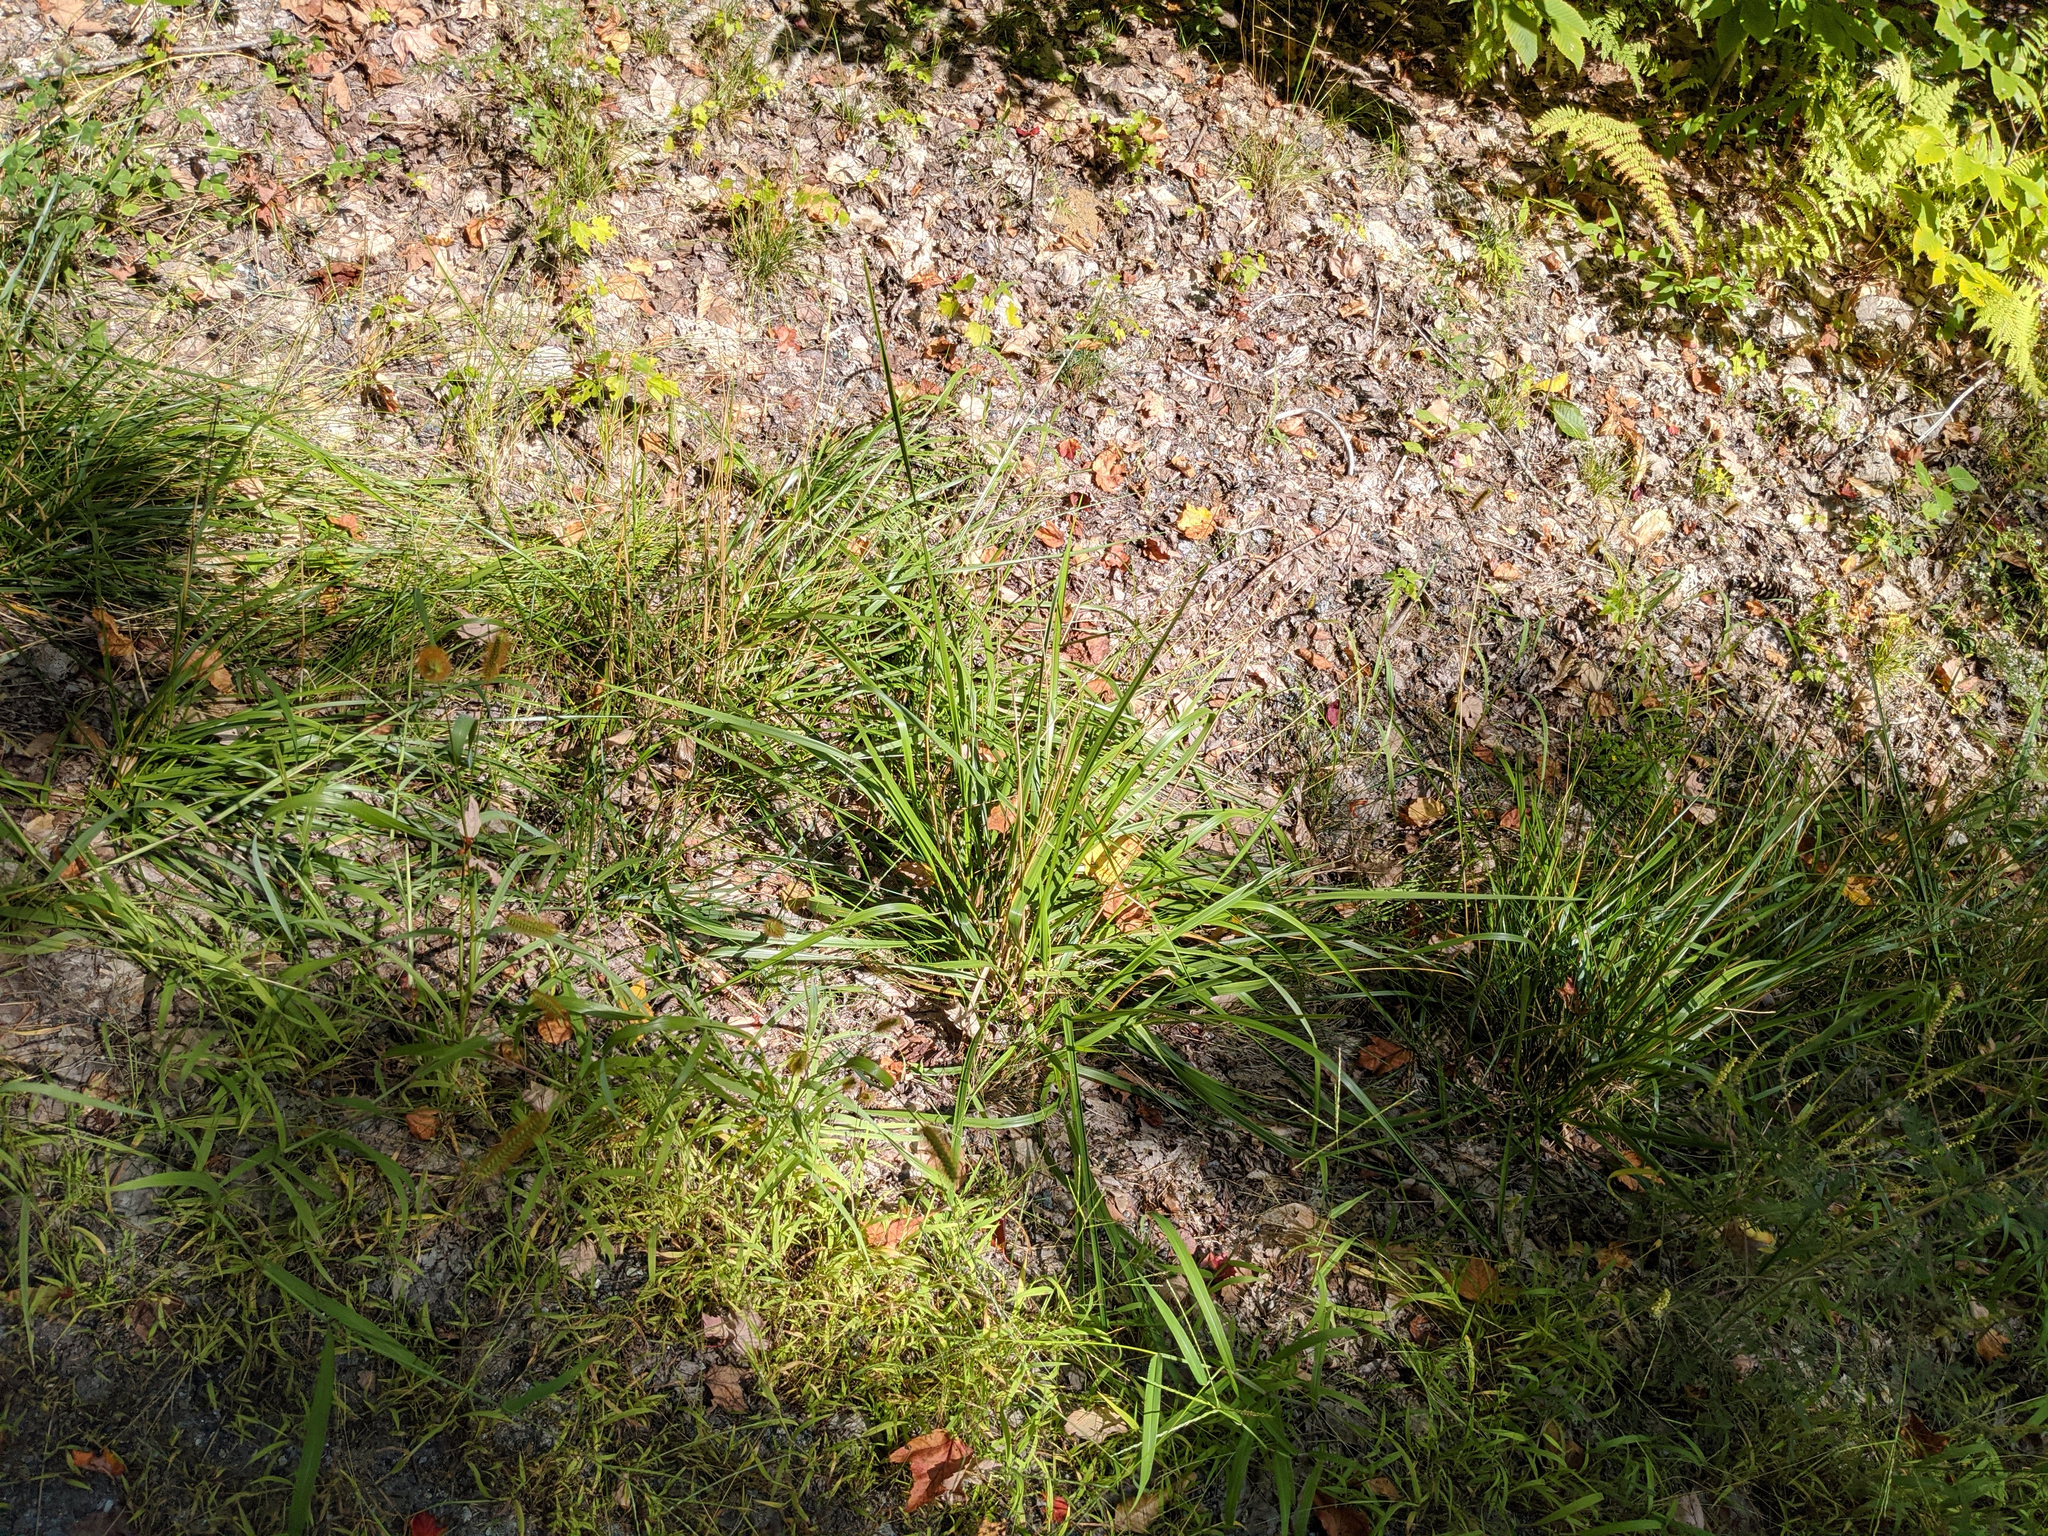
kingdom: Plantae
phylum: Tracheophyta
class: Liliopsida
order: Poales
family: Poaceae
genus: Setaria
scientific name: Setaria pumila
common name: Yellow bristle-grass
